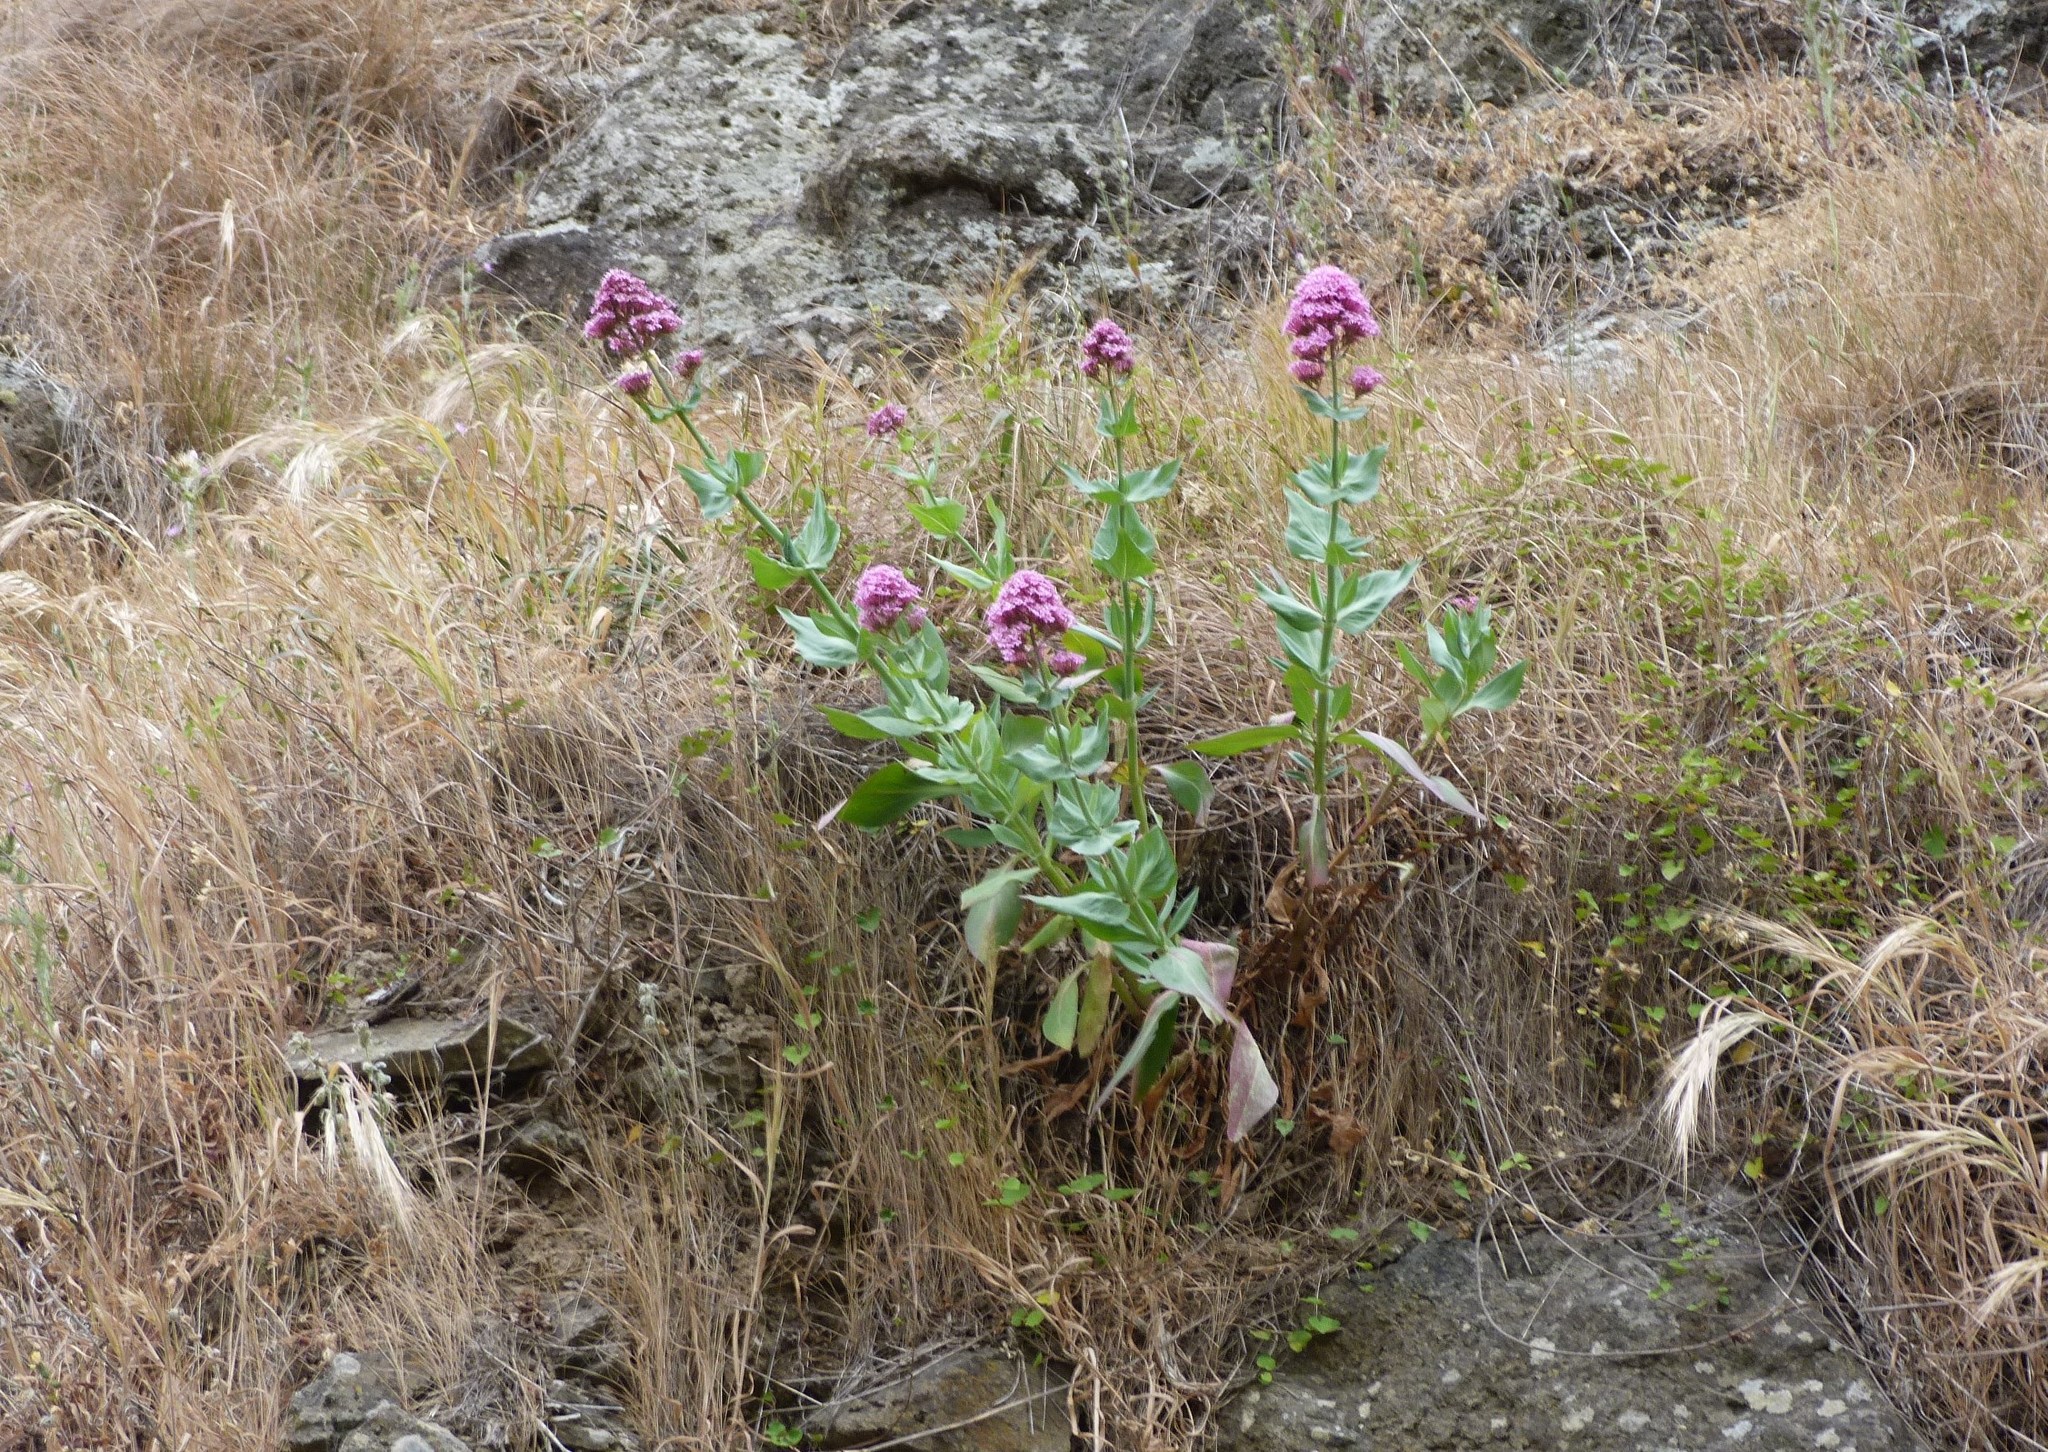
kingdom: Plantae
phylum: Tracheophyta
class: Magnoliopsida
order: Dipsacales
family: Caprifoliaceae
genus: Centranthus
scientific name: Centranthus ruber
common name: Red valerian
